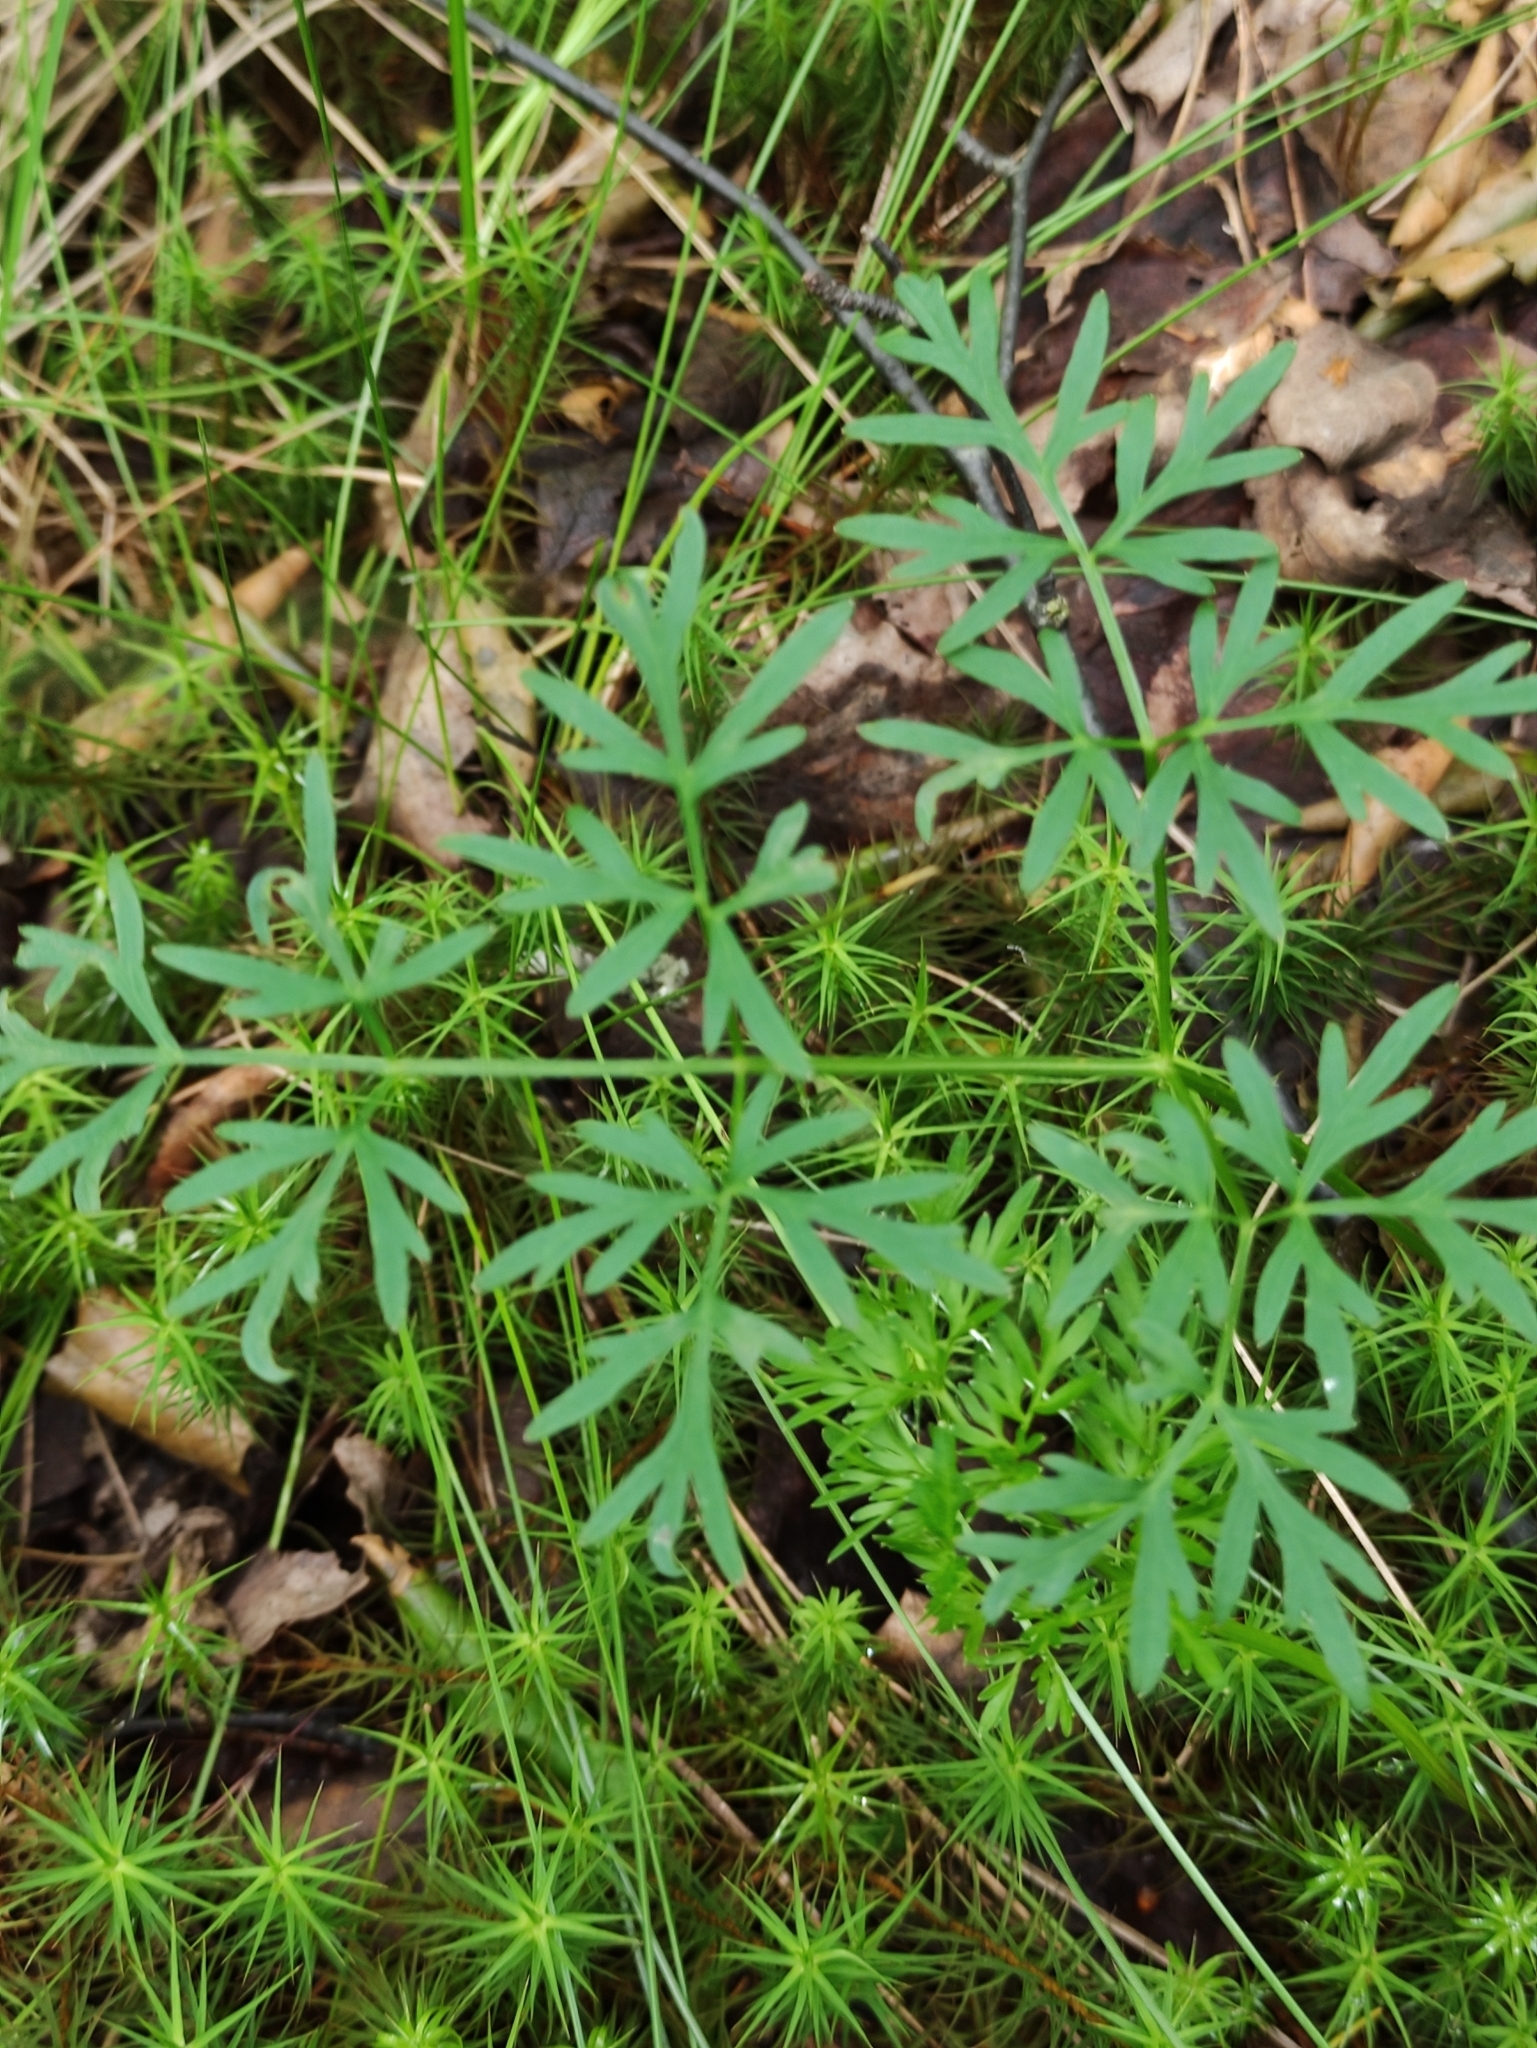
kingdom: Plantae
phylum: Tracheophyta
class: Magnoliopsida
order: Apiales
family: Apiaceae
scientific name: Apiaceae
